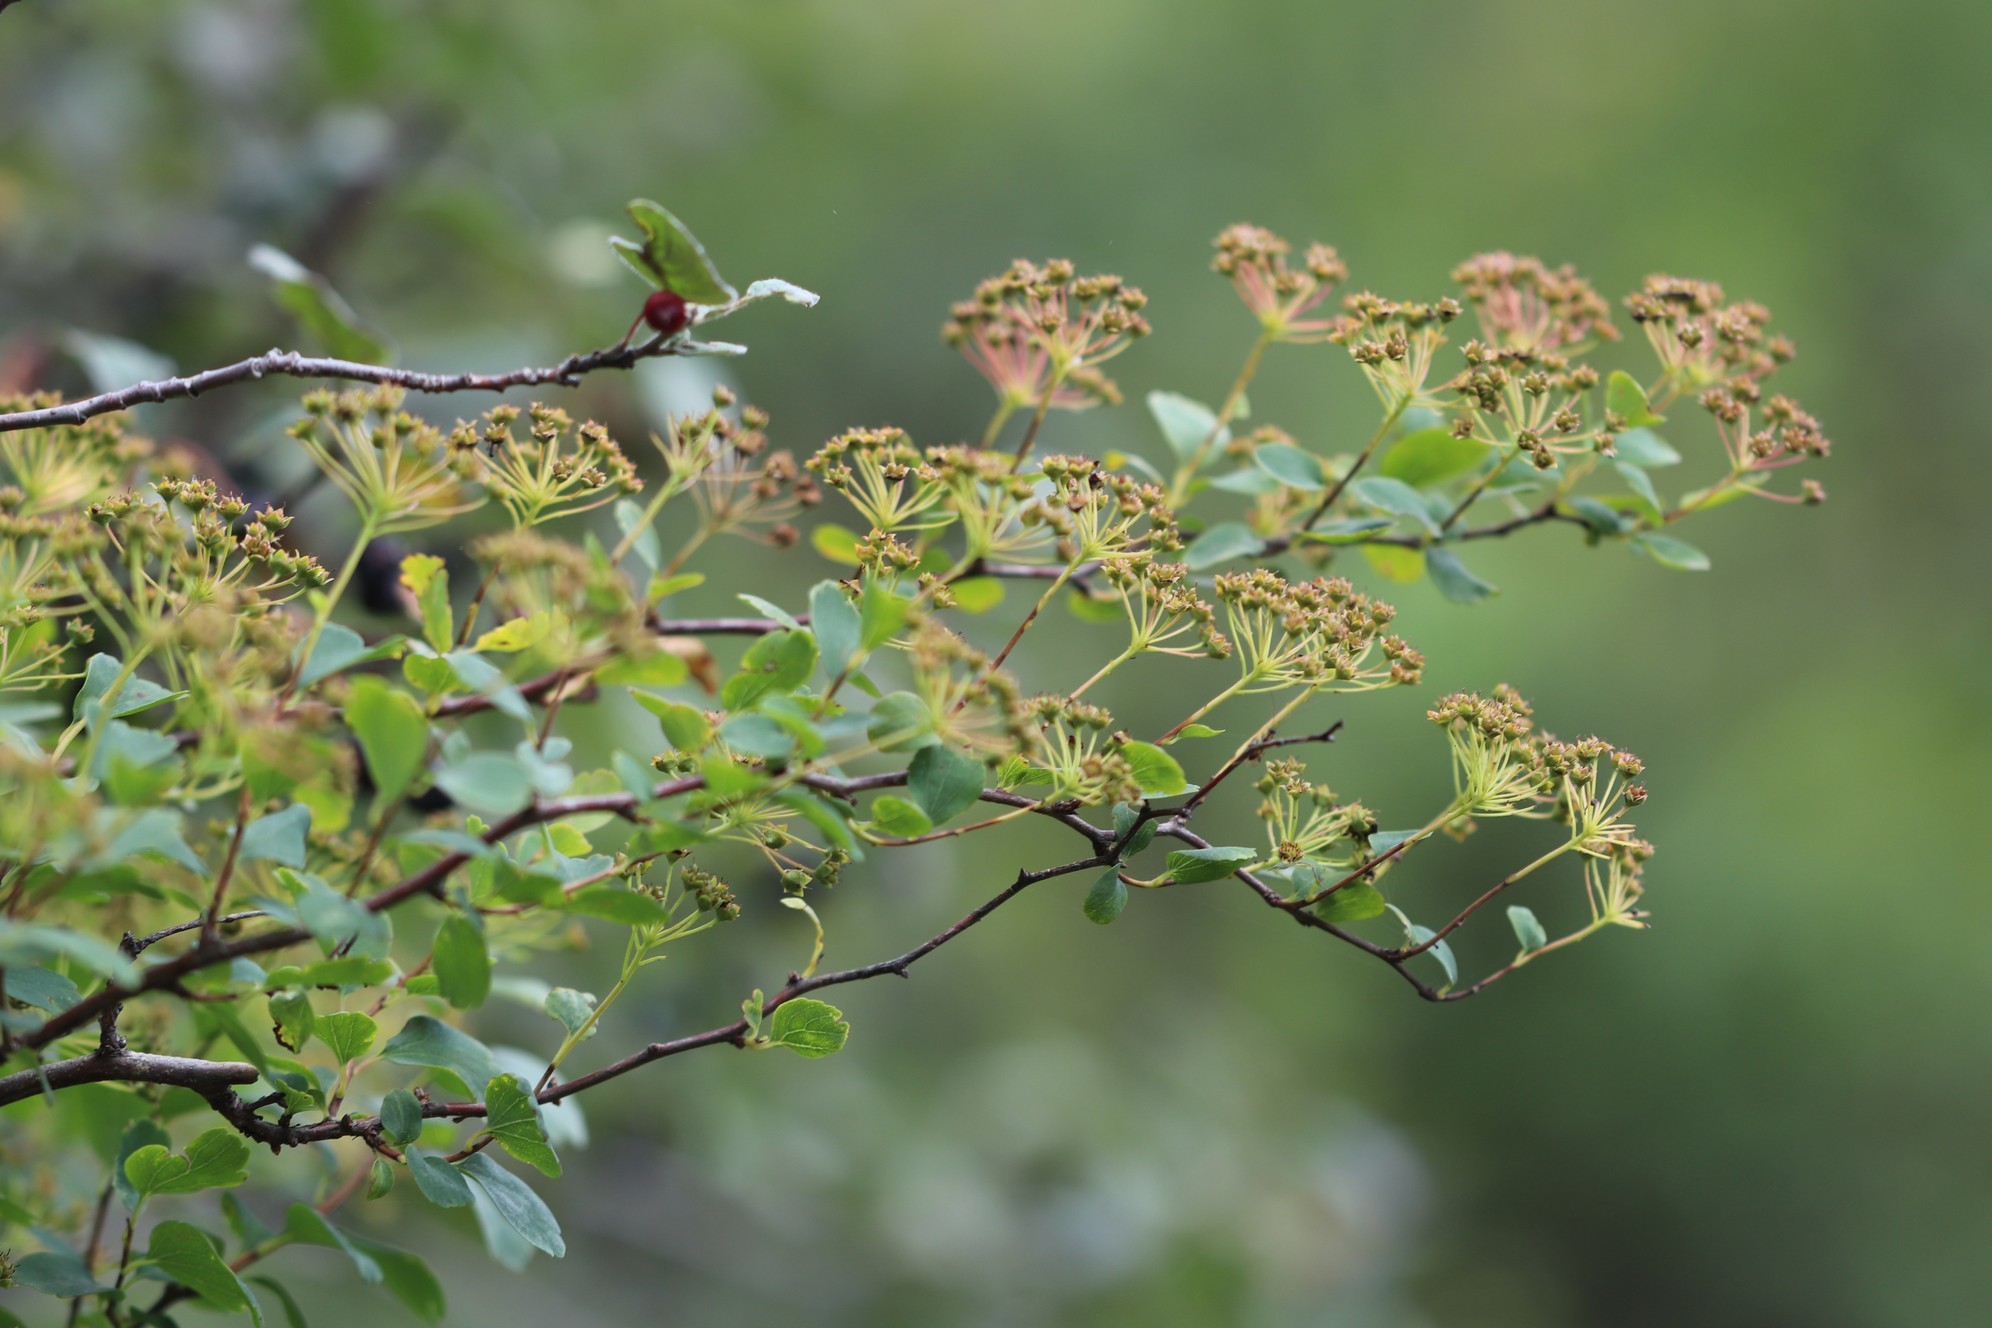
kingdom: Plantae
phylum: Tracheophyta
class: Magnoliopsida
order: Rosales
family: Rosaceae
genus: Spiraea
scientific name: Spiraea trilobata
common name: Asian meadowsweet
